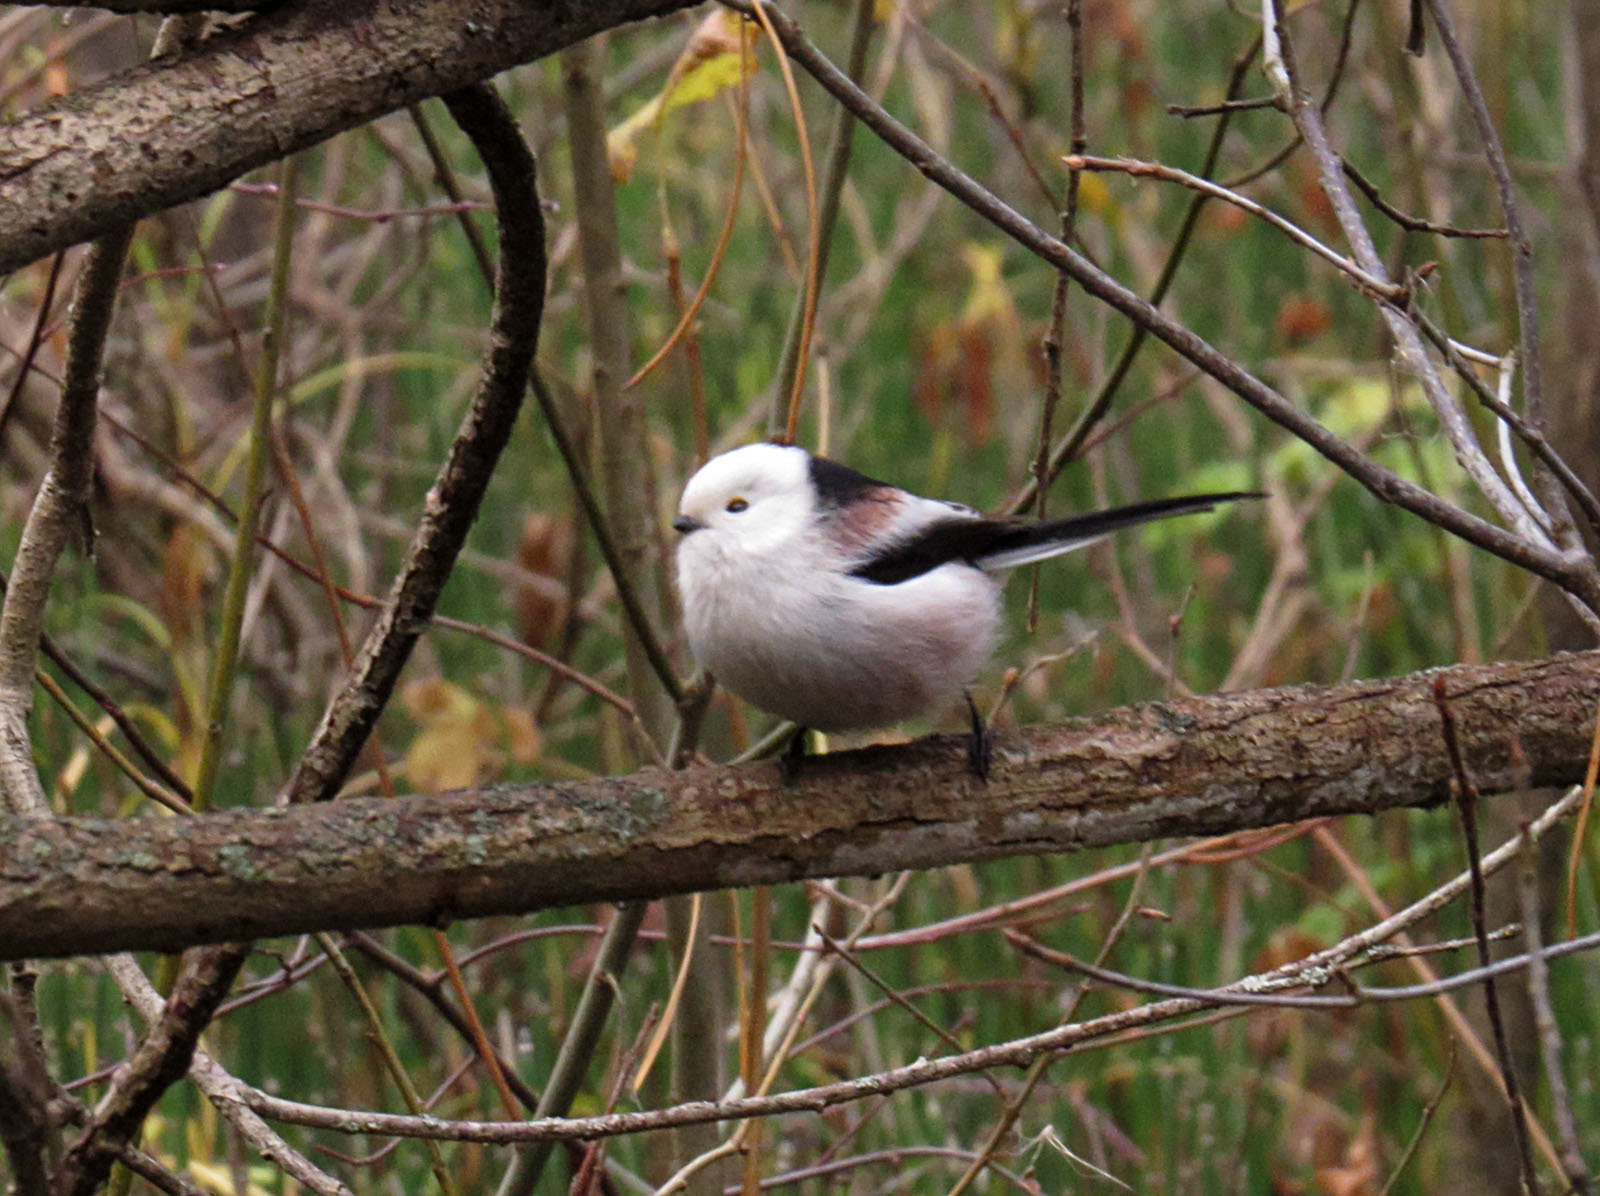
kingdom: Animalia
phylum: Chordata
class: Aves
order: Passeriformes
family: Aegithalidae
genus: Aegithalos
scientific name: Aegithalos caudatus
